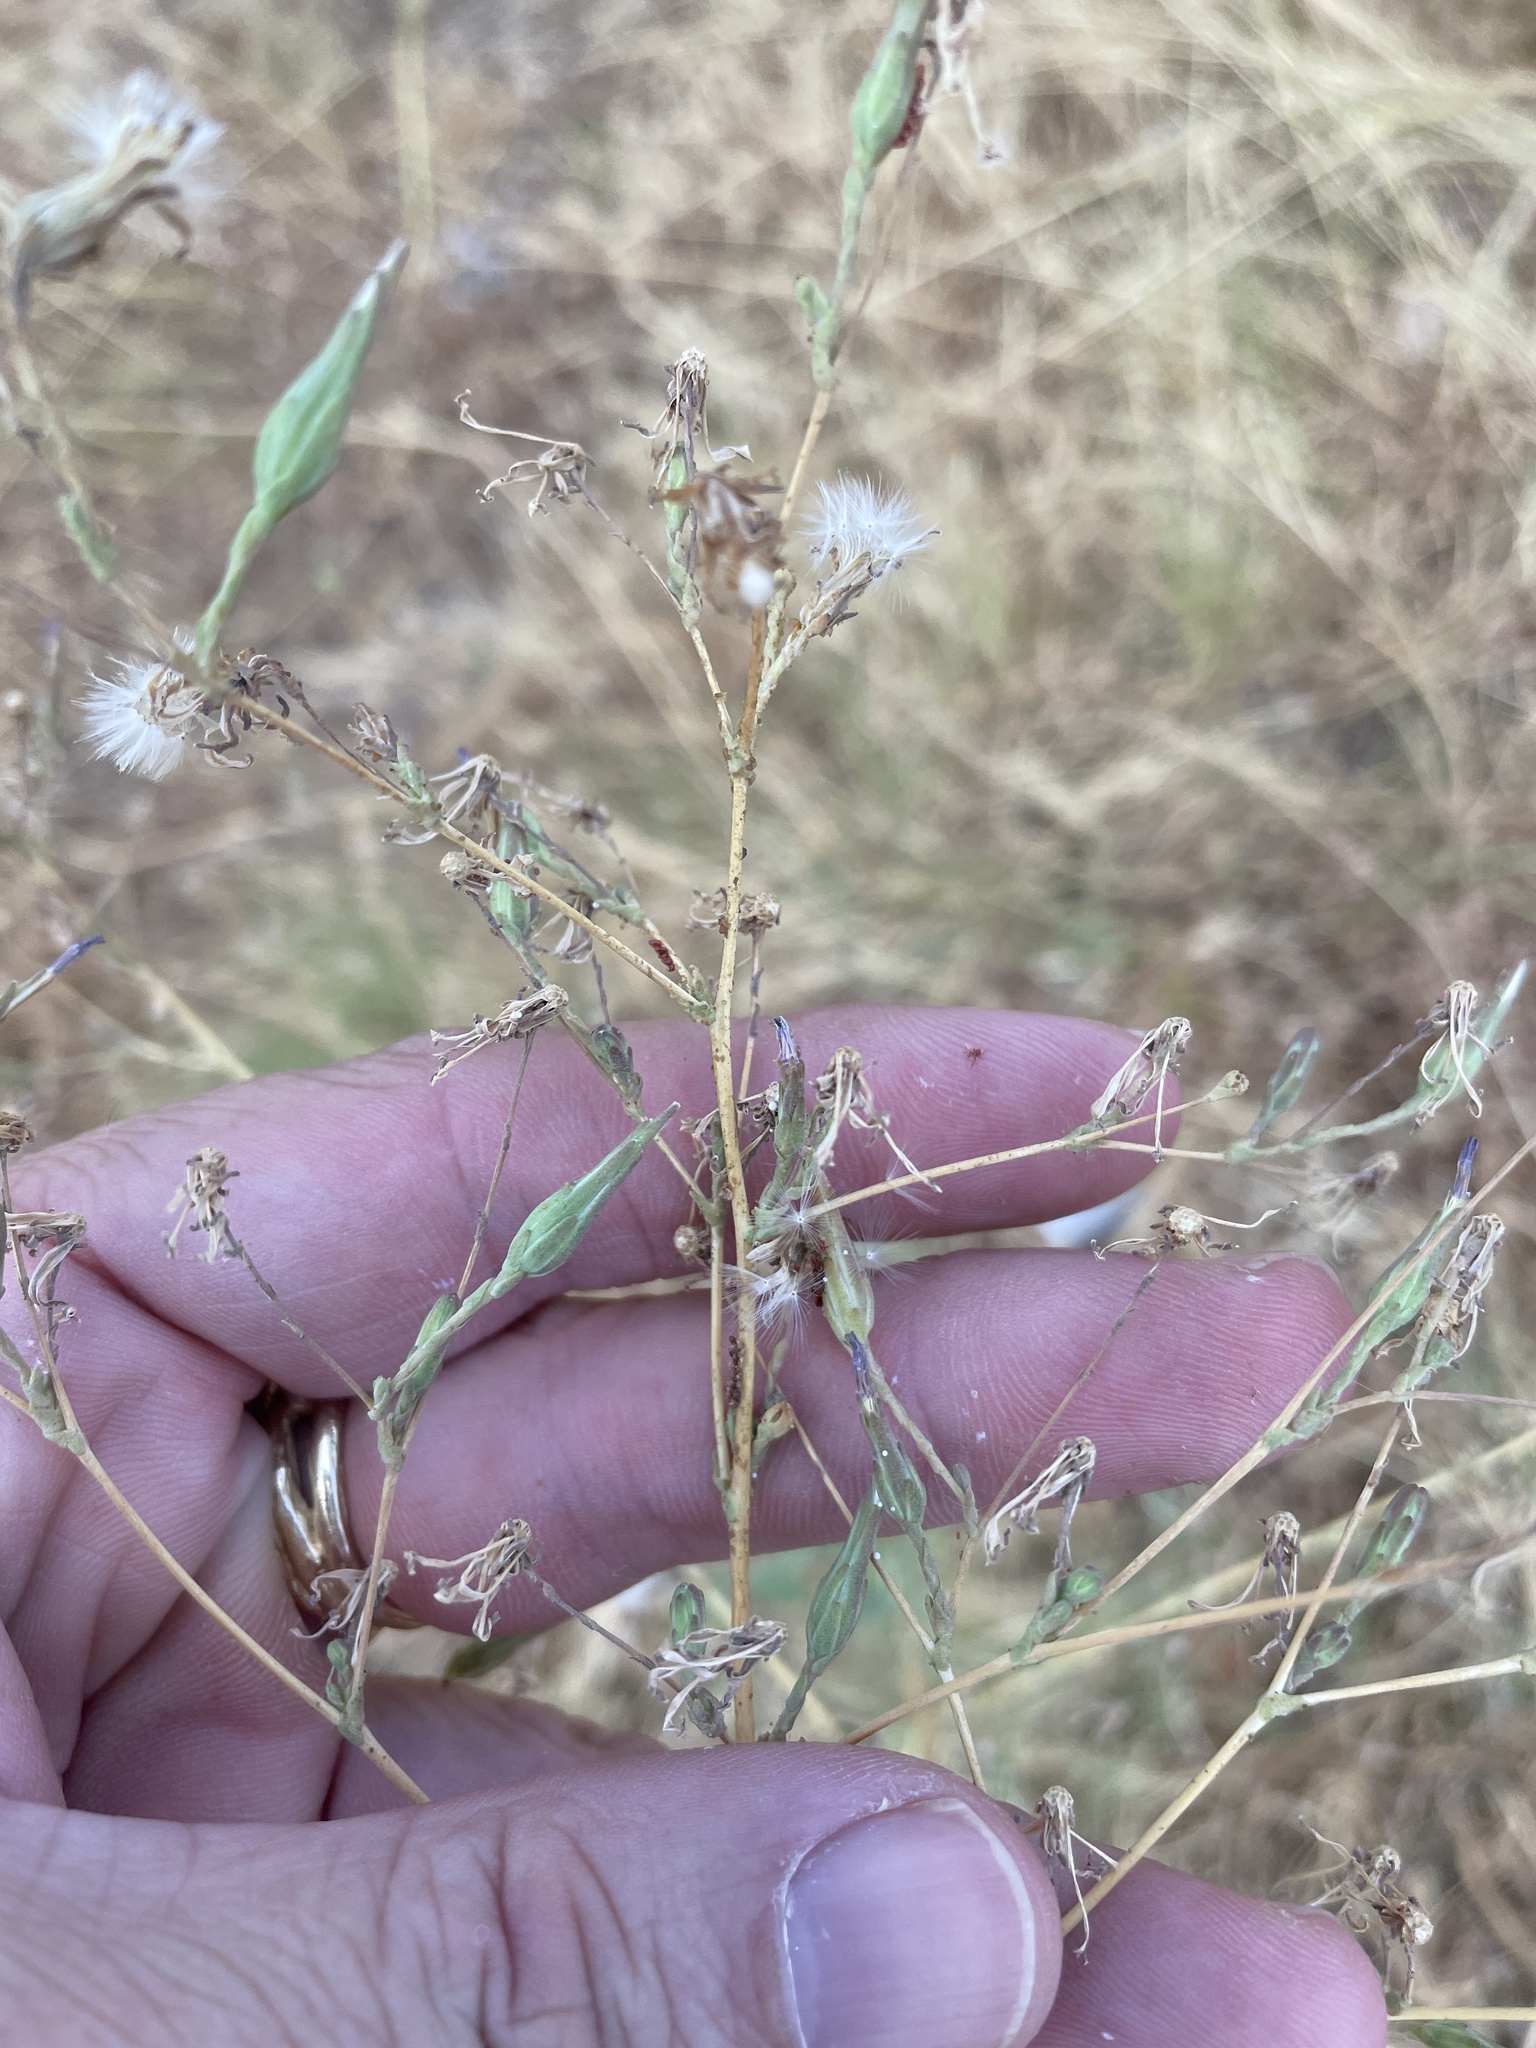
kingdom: Plantae
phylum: Tracheophyta
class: Magnoliopsida
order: Asterales
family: Asteraceae
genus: Lactuca
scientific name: Lactuca serriola
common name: Prickly lettuce
